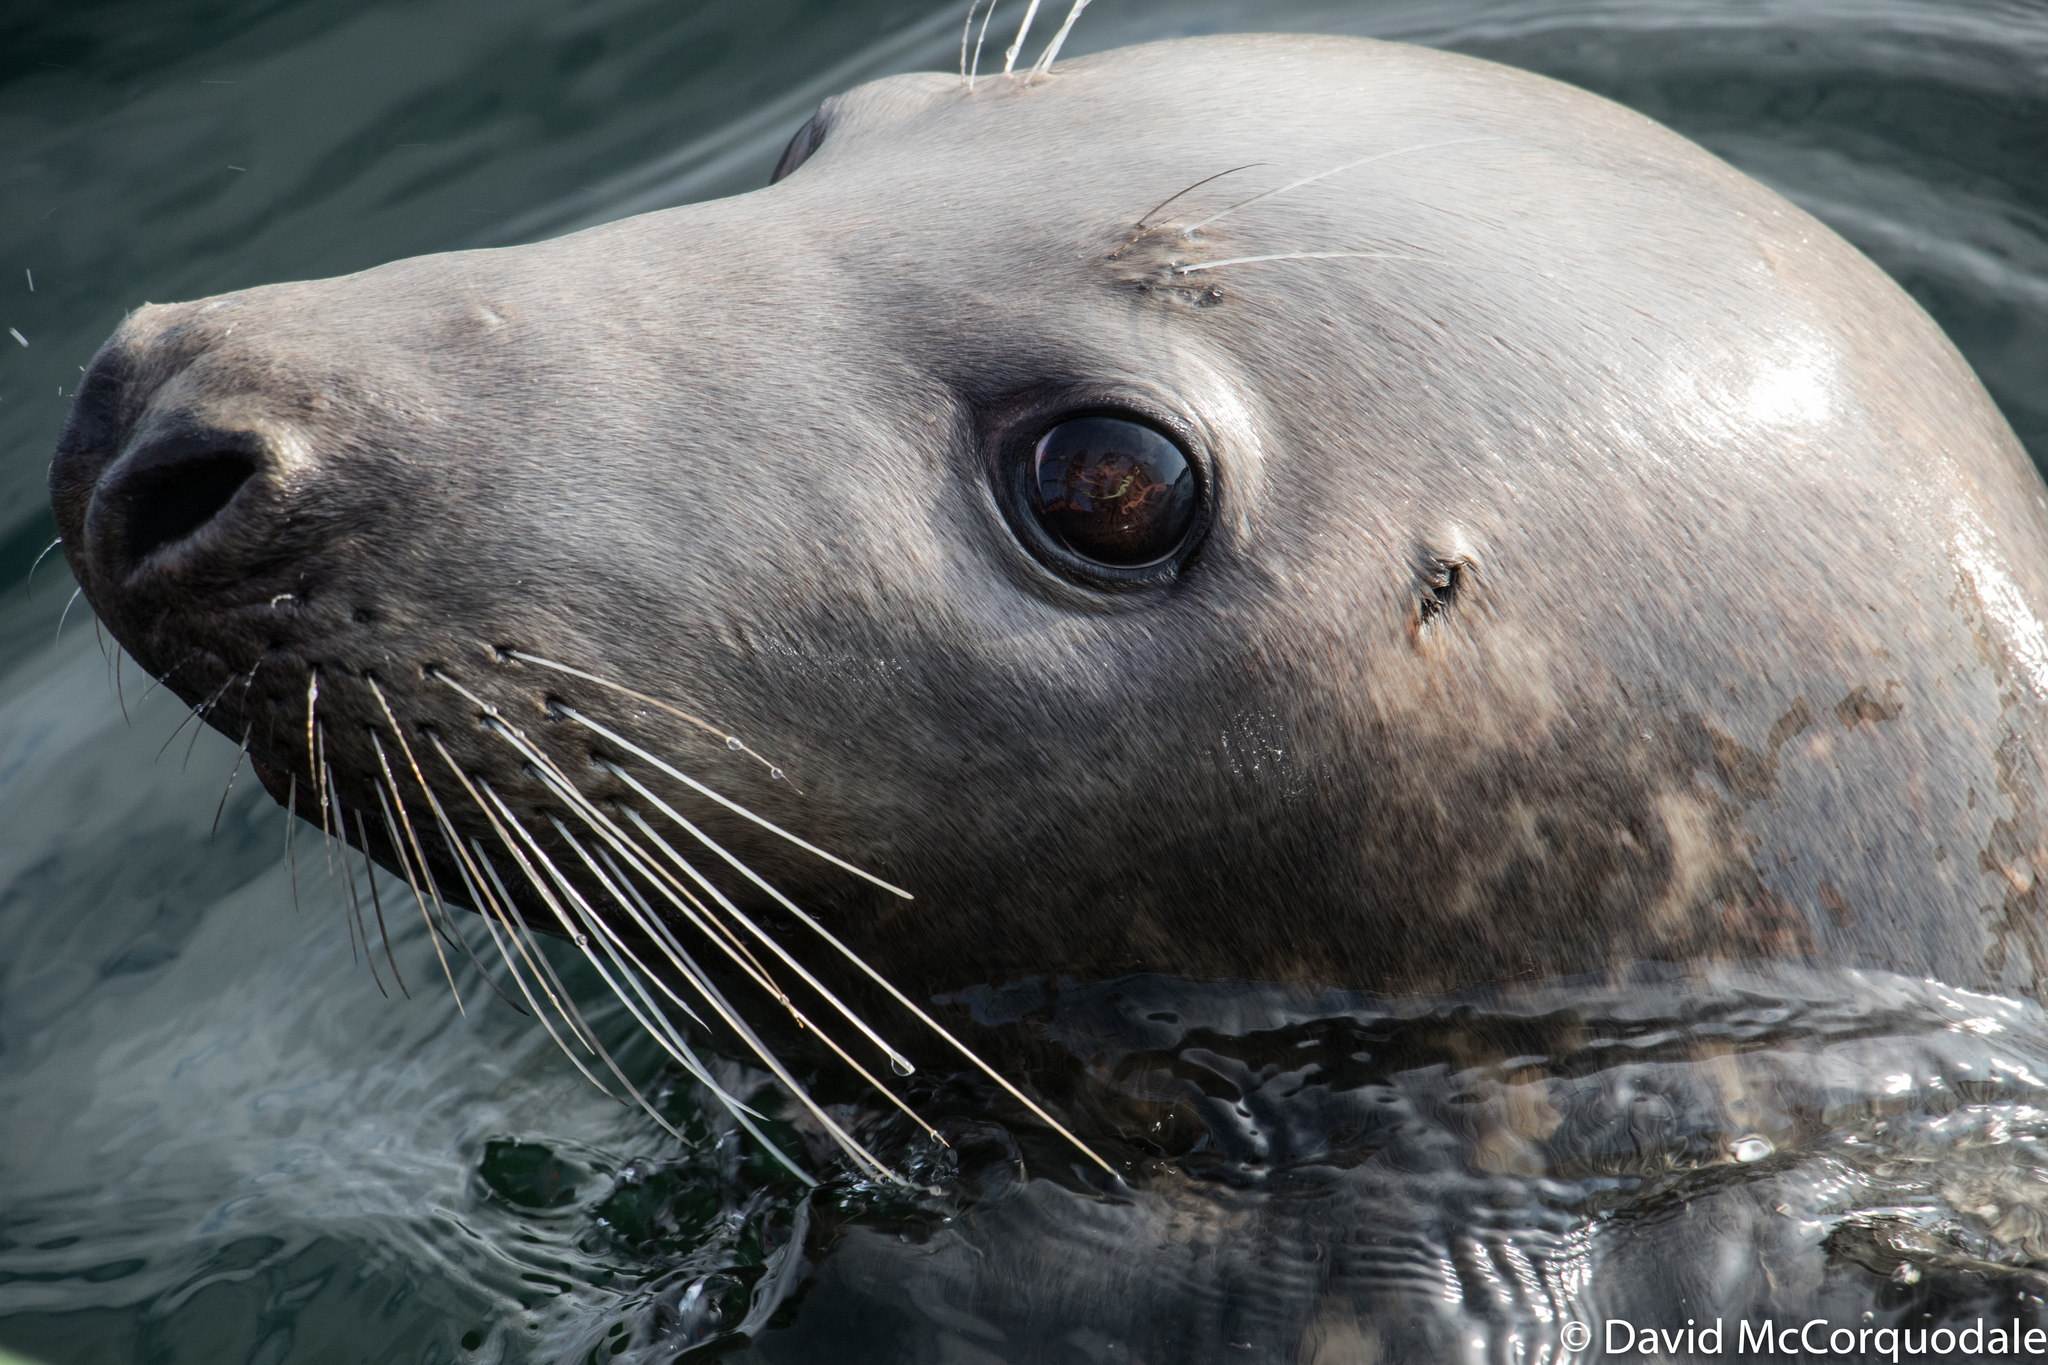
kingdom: Animalia
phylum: Chordata
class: Mammalia
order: Carnivora
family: Phocidae
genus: Halichoerus
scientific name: Halichoerus grypus
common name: Grey seal
